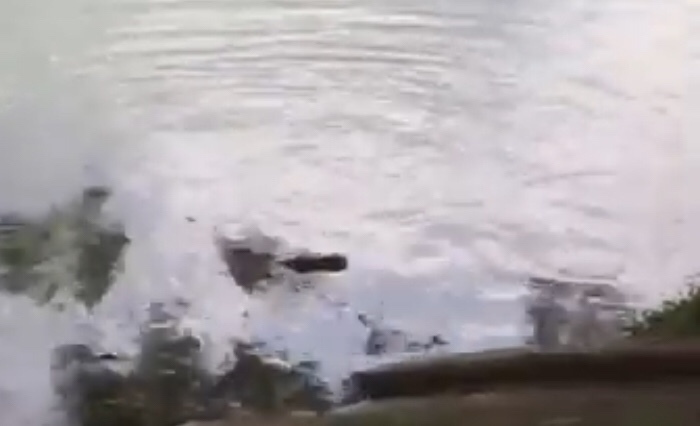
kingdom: Animalia
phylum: Chordata
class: Squamata
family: Varanidae
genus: Varanus
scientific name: Varanus salvator
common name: Common water monitor
